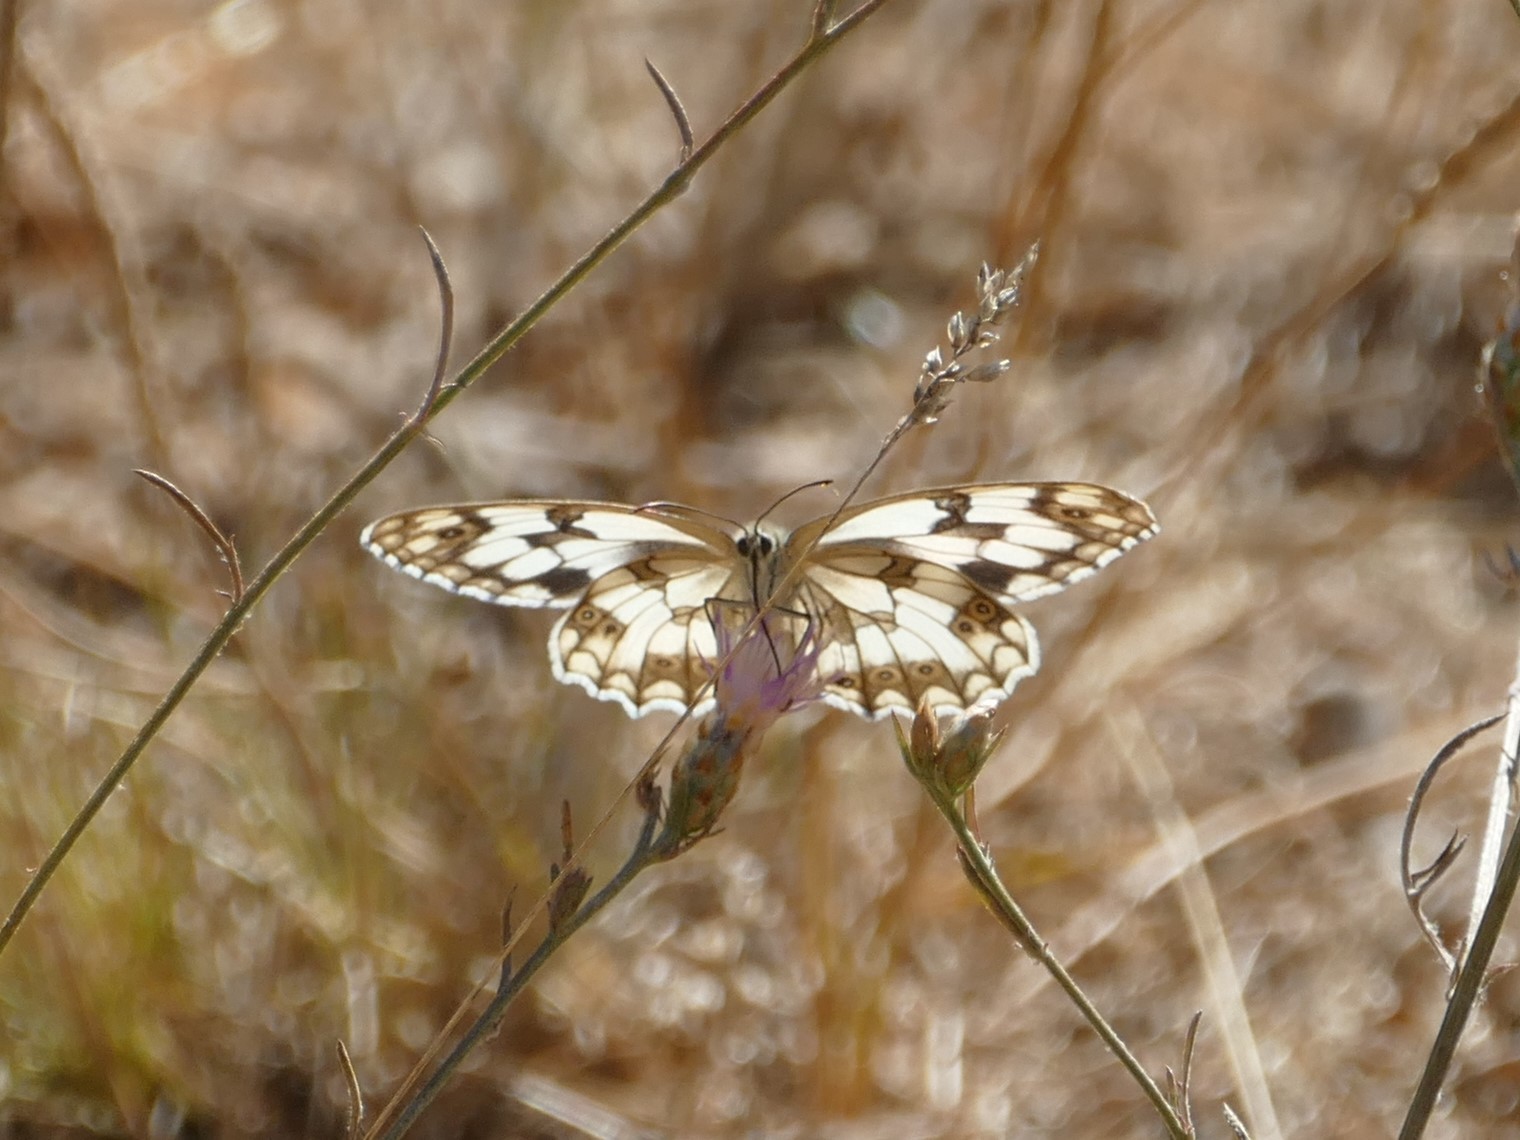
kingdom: Animalia
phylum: Arthropoda
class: Insecta
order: Lepidoptera
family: Nymphalidae
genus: Melanargia
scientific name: Melanargia lachesis
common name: Iberian marbled white
